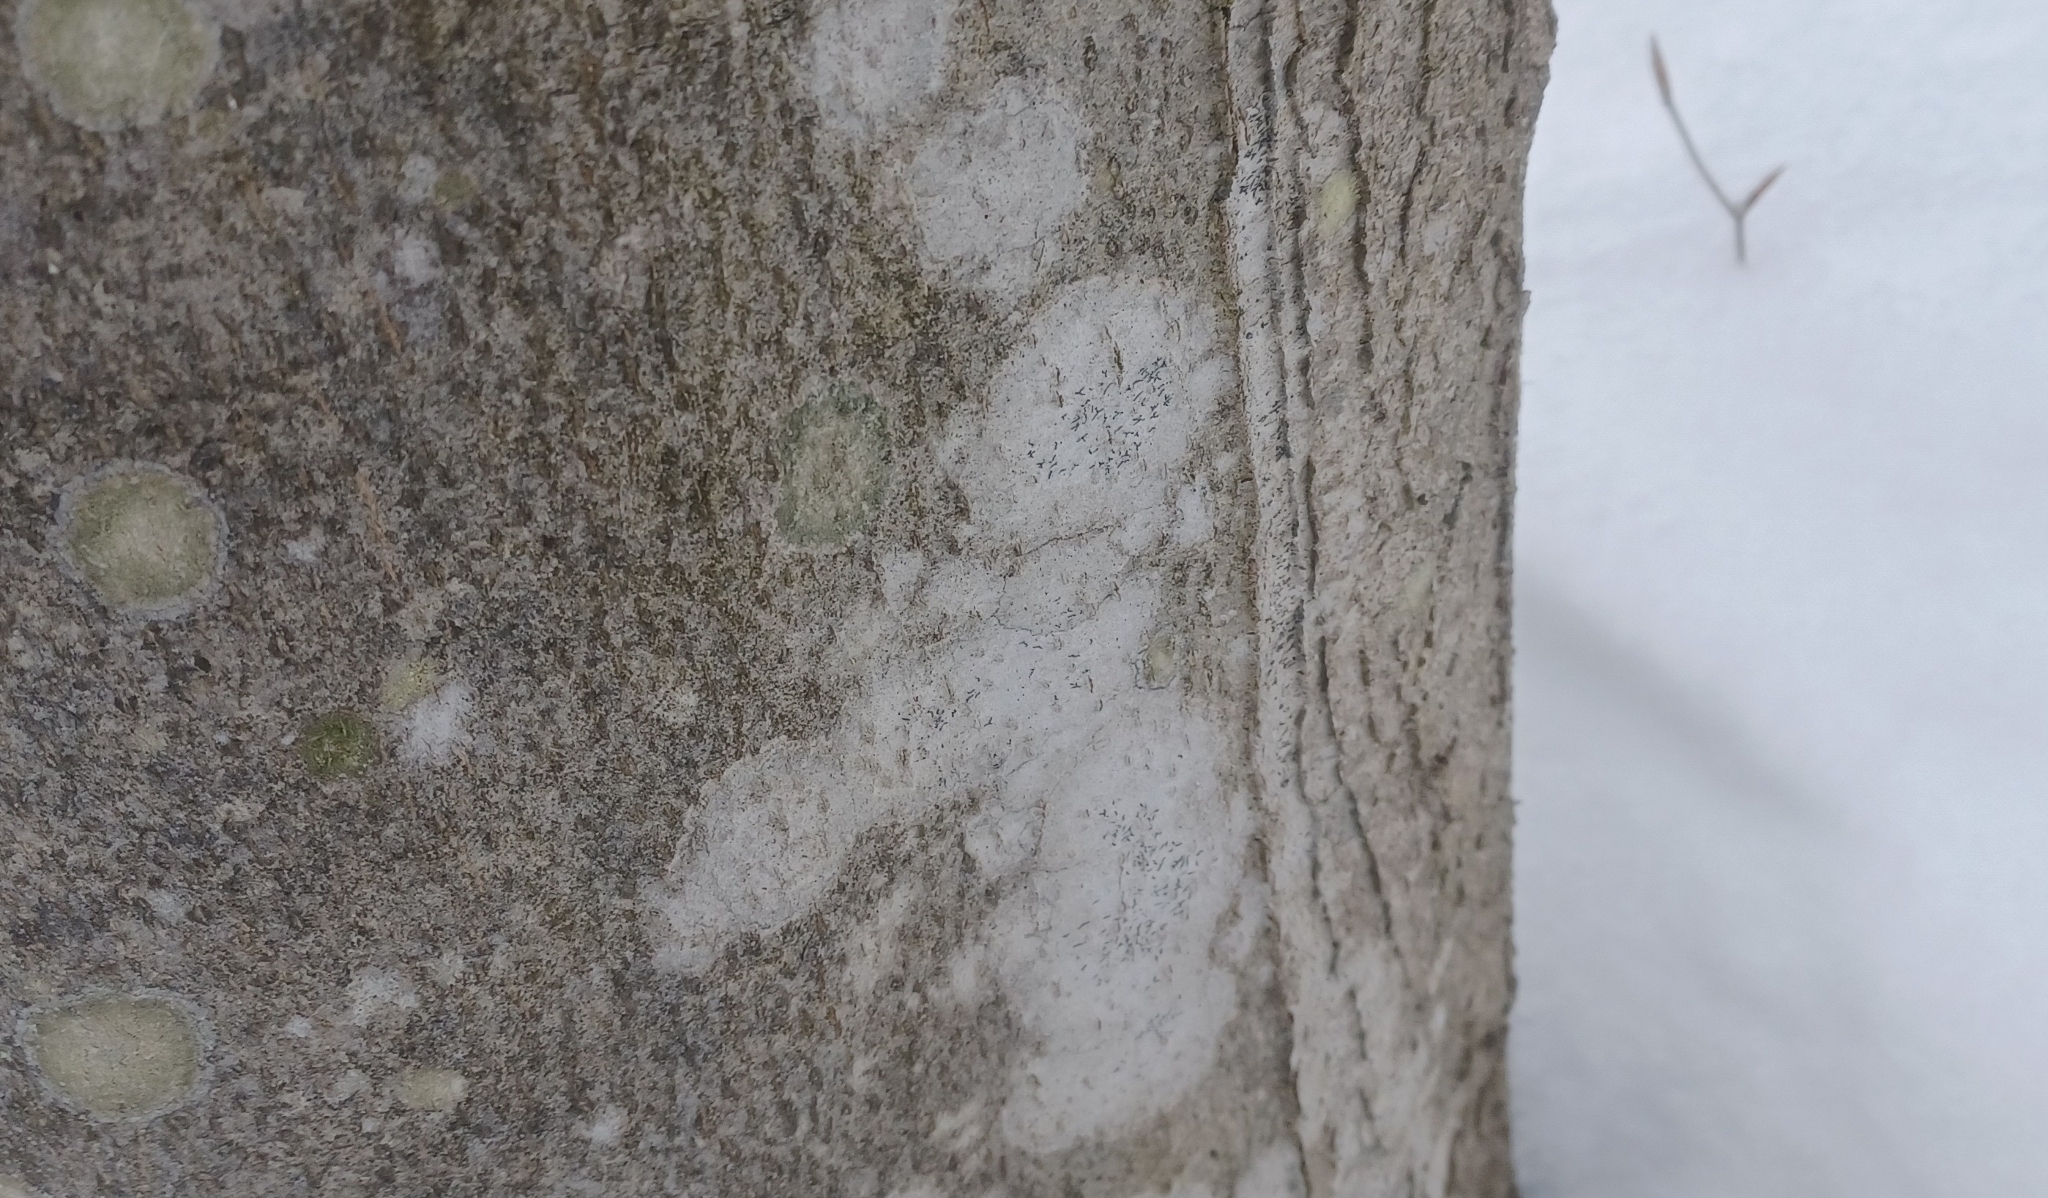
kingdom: Fungi
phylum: Ascomycota
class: Lecanoromycetes
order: Ostropales
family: Graphidaceae
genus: Graphis
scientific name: Graphis scripta
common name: Script lichen
